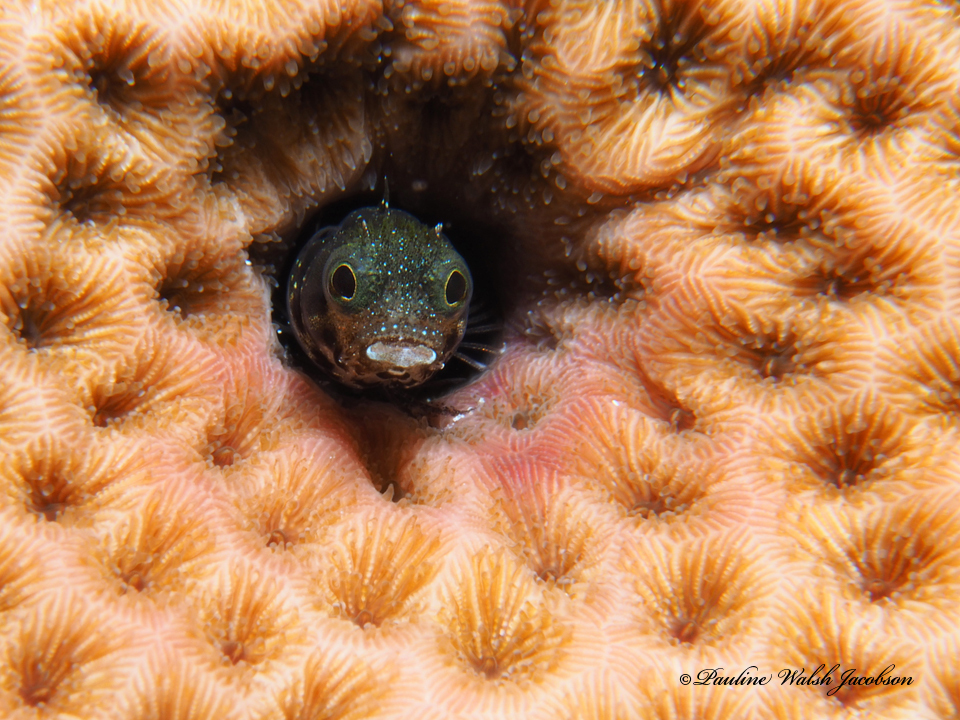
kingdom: Animalia
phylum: Chordata
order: Perciformes
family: Chaenopsidae
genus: Acanthemblemaria
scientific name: Acanthemblemaria spinosa
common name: Spinyhead blenny
